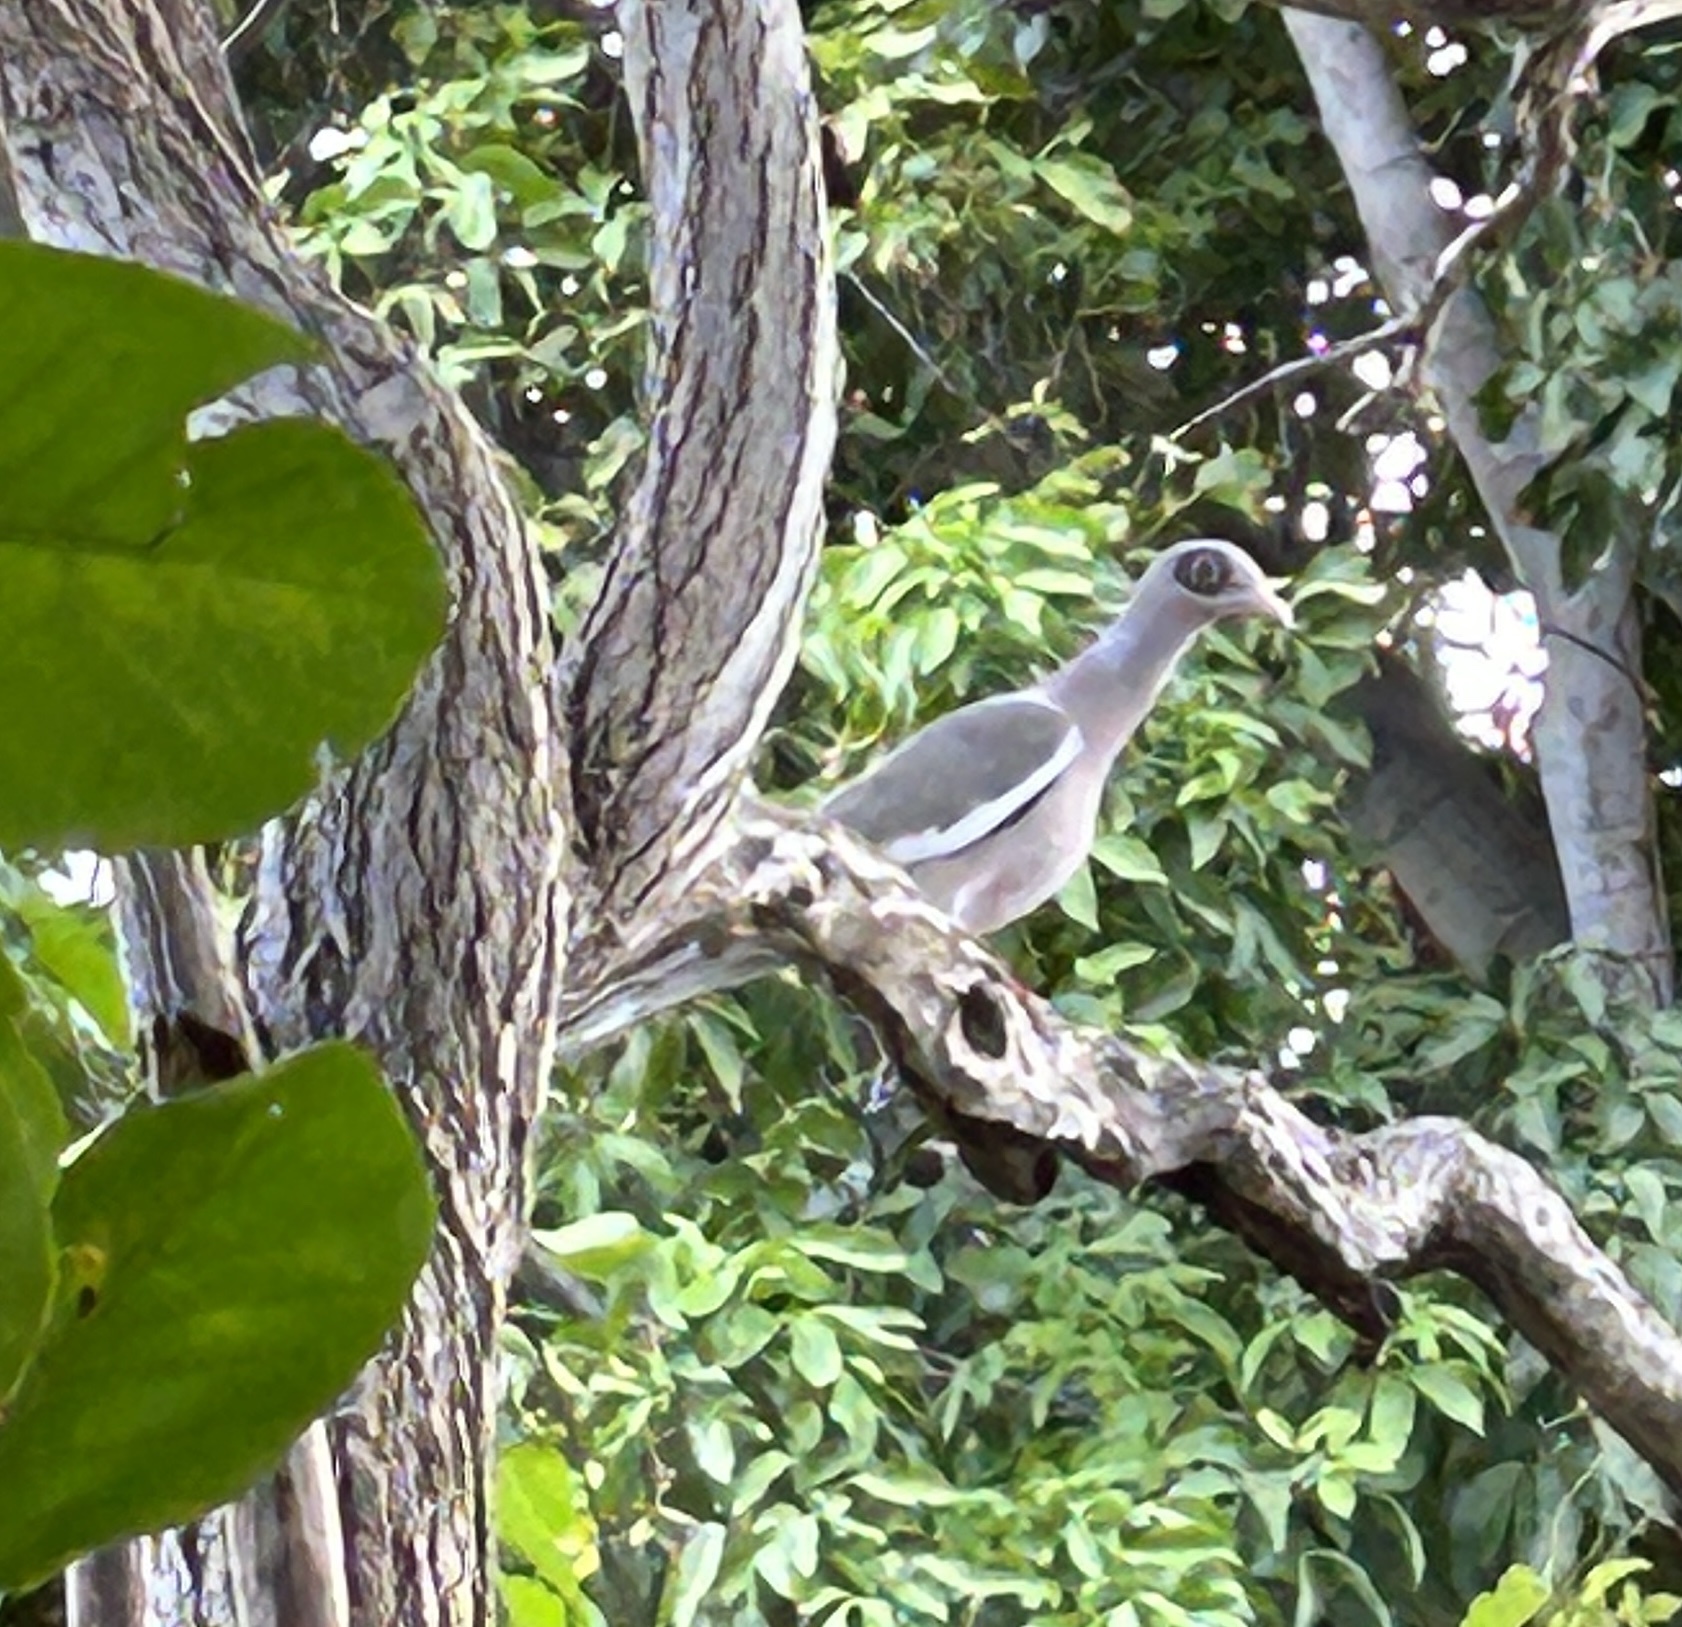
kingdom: Animalia
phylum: Chordata
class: Aves
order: Columbiformes
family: Columbidae
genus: Patagioenas
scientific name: Patagioenas corensis
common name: Bare-eyed pigeon
